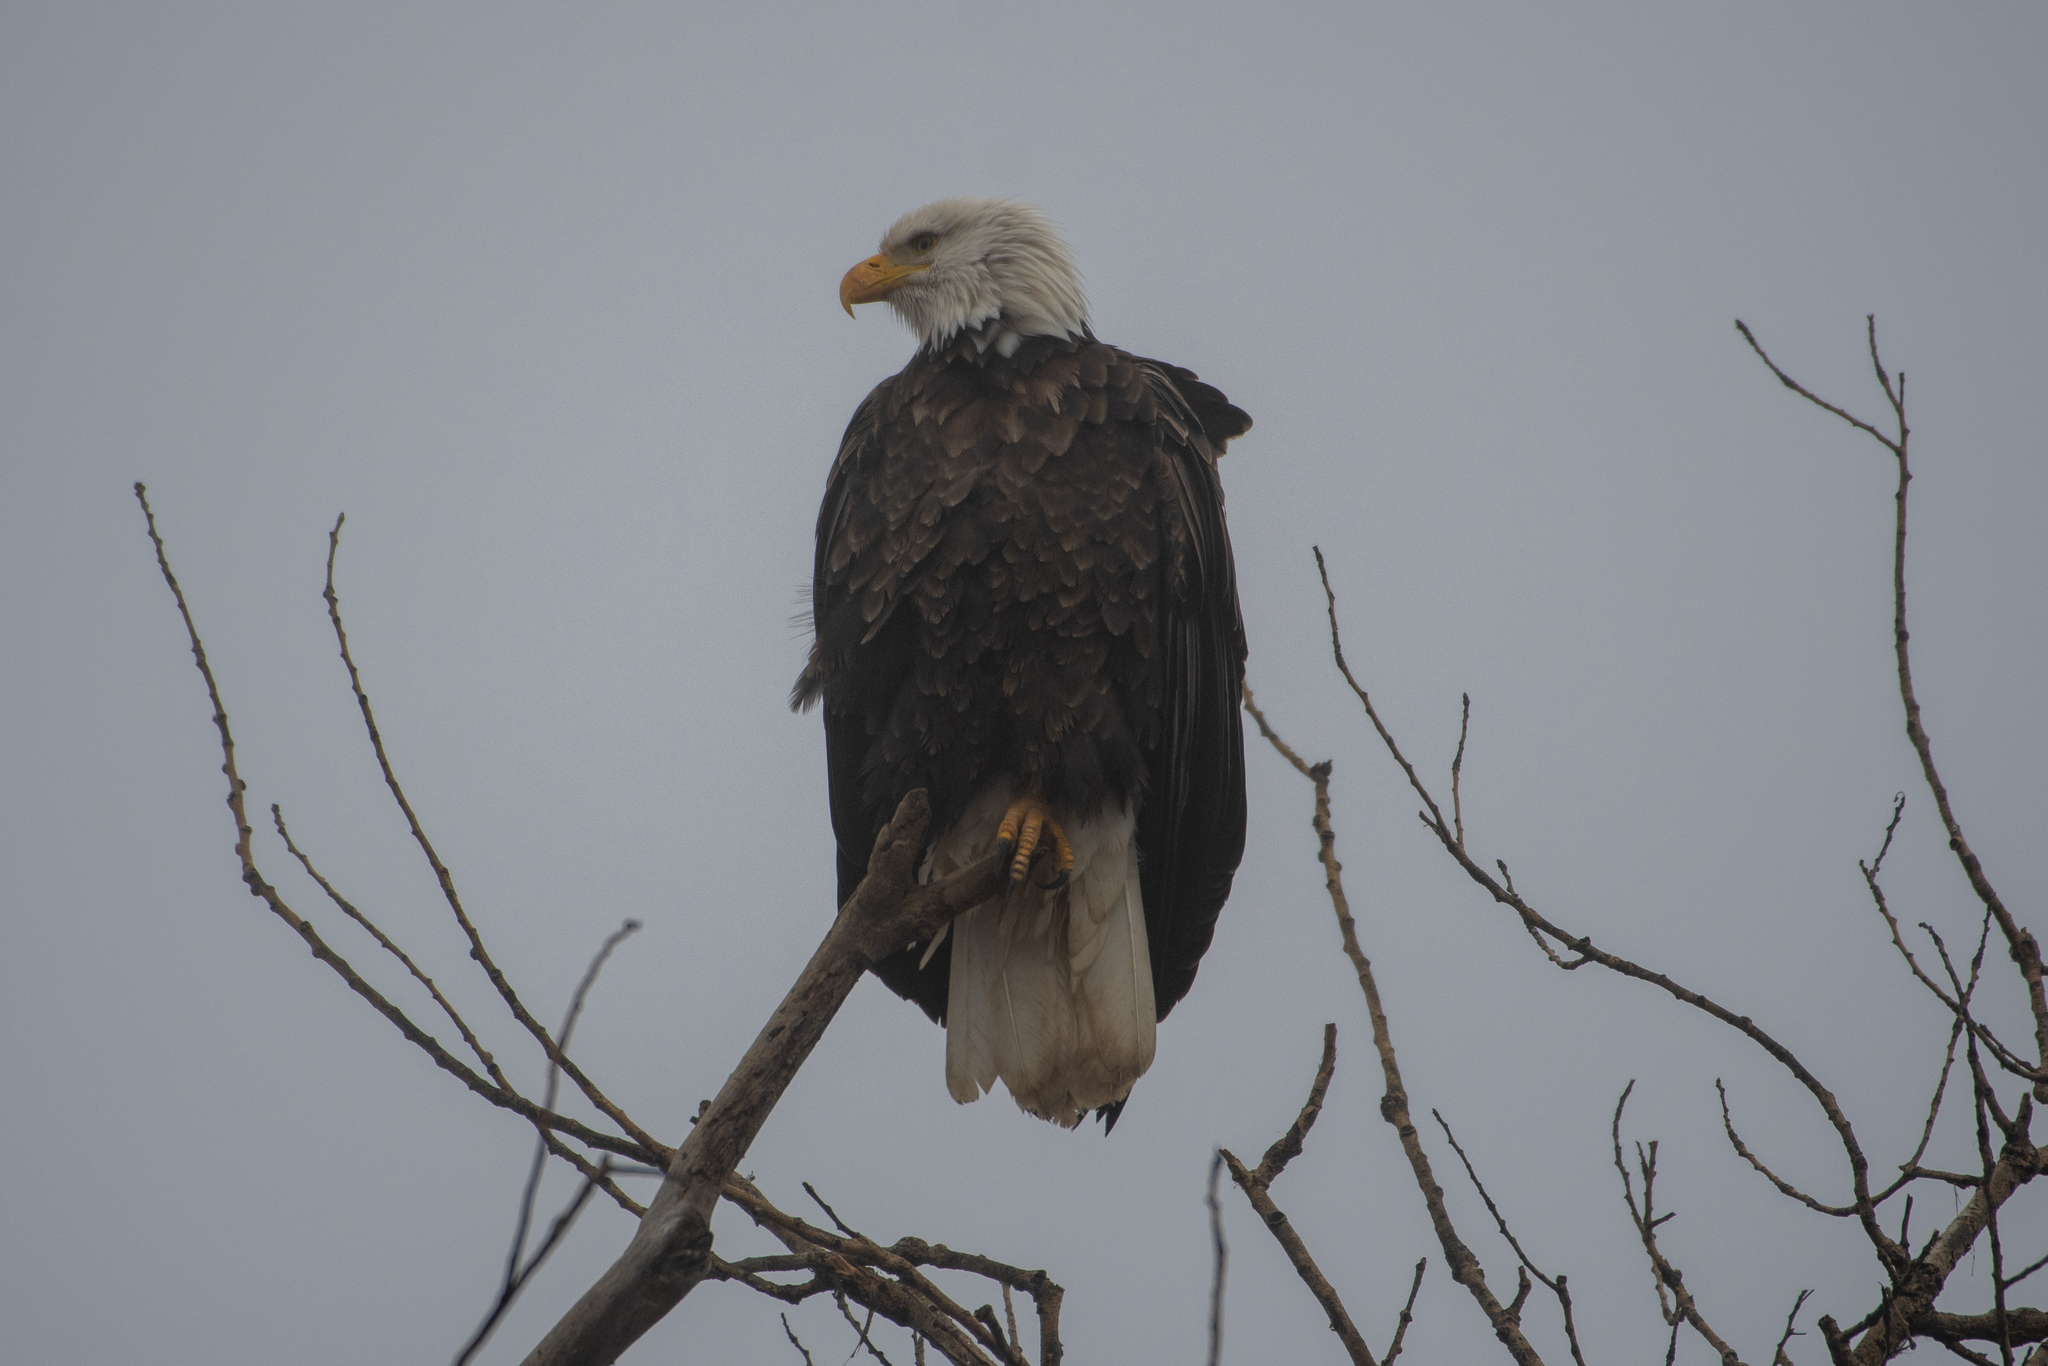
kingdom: Animalia
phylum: Chordata
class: Aves
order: Accipitriformes
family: Accipitridae
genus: Haliaeetus
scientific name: Haliaeetus leucocephalus
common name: Bald eagle
